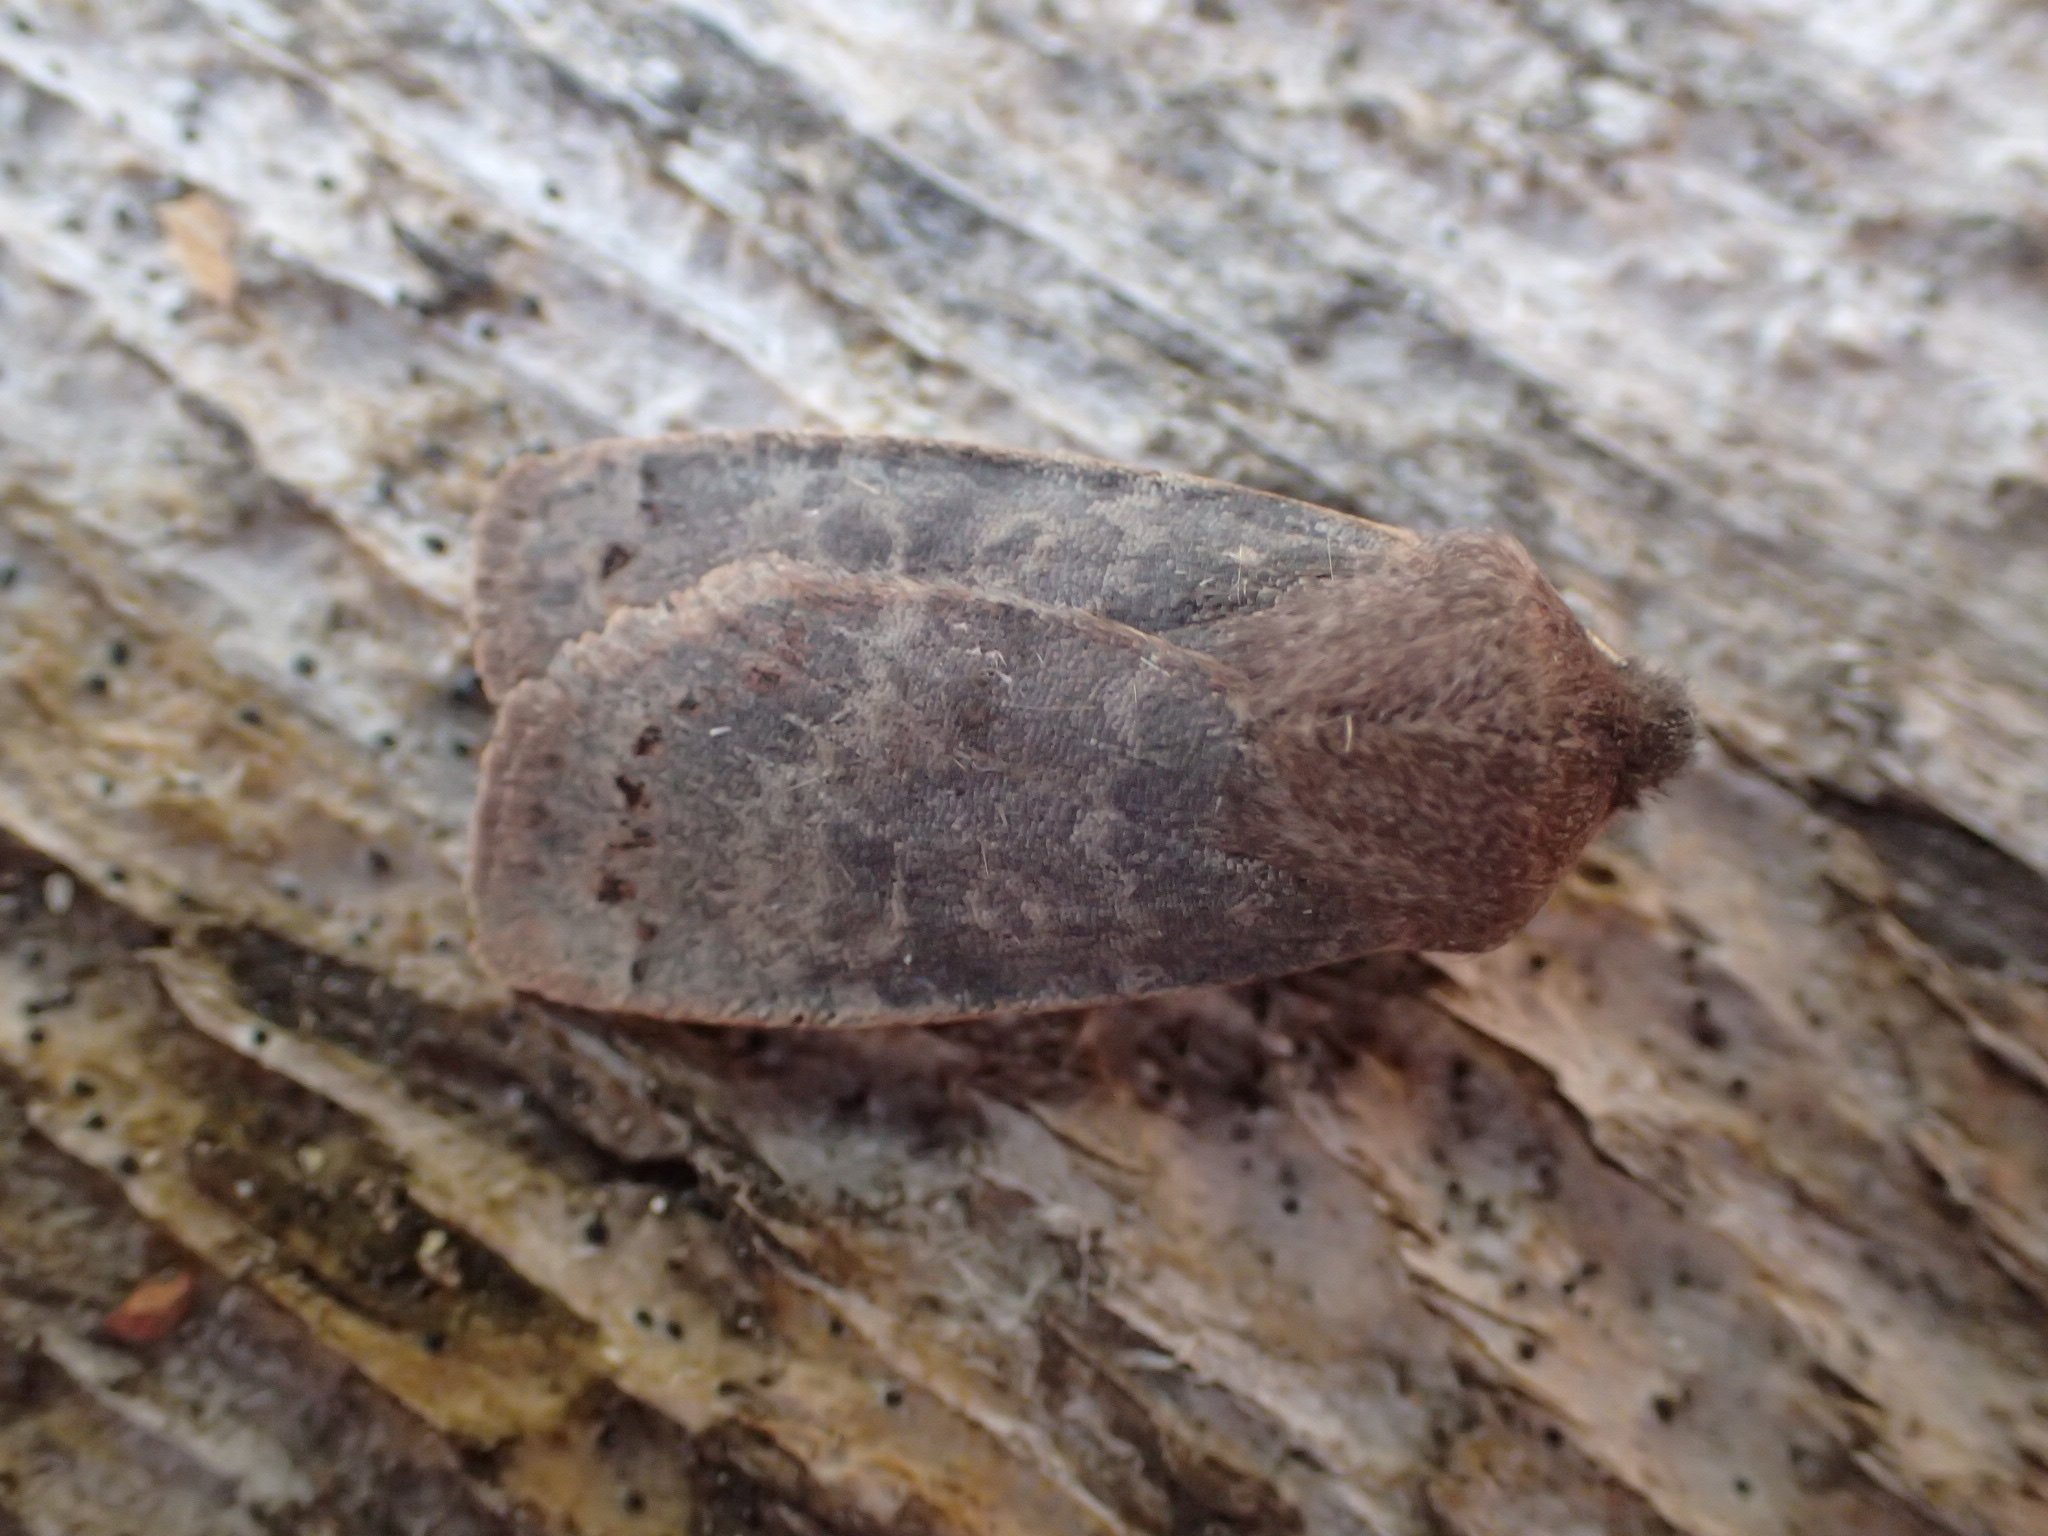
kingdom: Animalia
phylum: Arthropoda
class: Insecta
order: Lepidoptera
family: Noctuidae
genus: Homoglaea
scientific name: Homoglaea hircina
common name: Goat sallow
